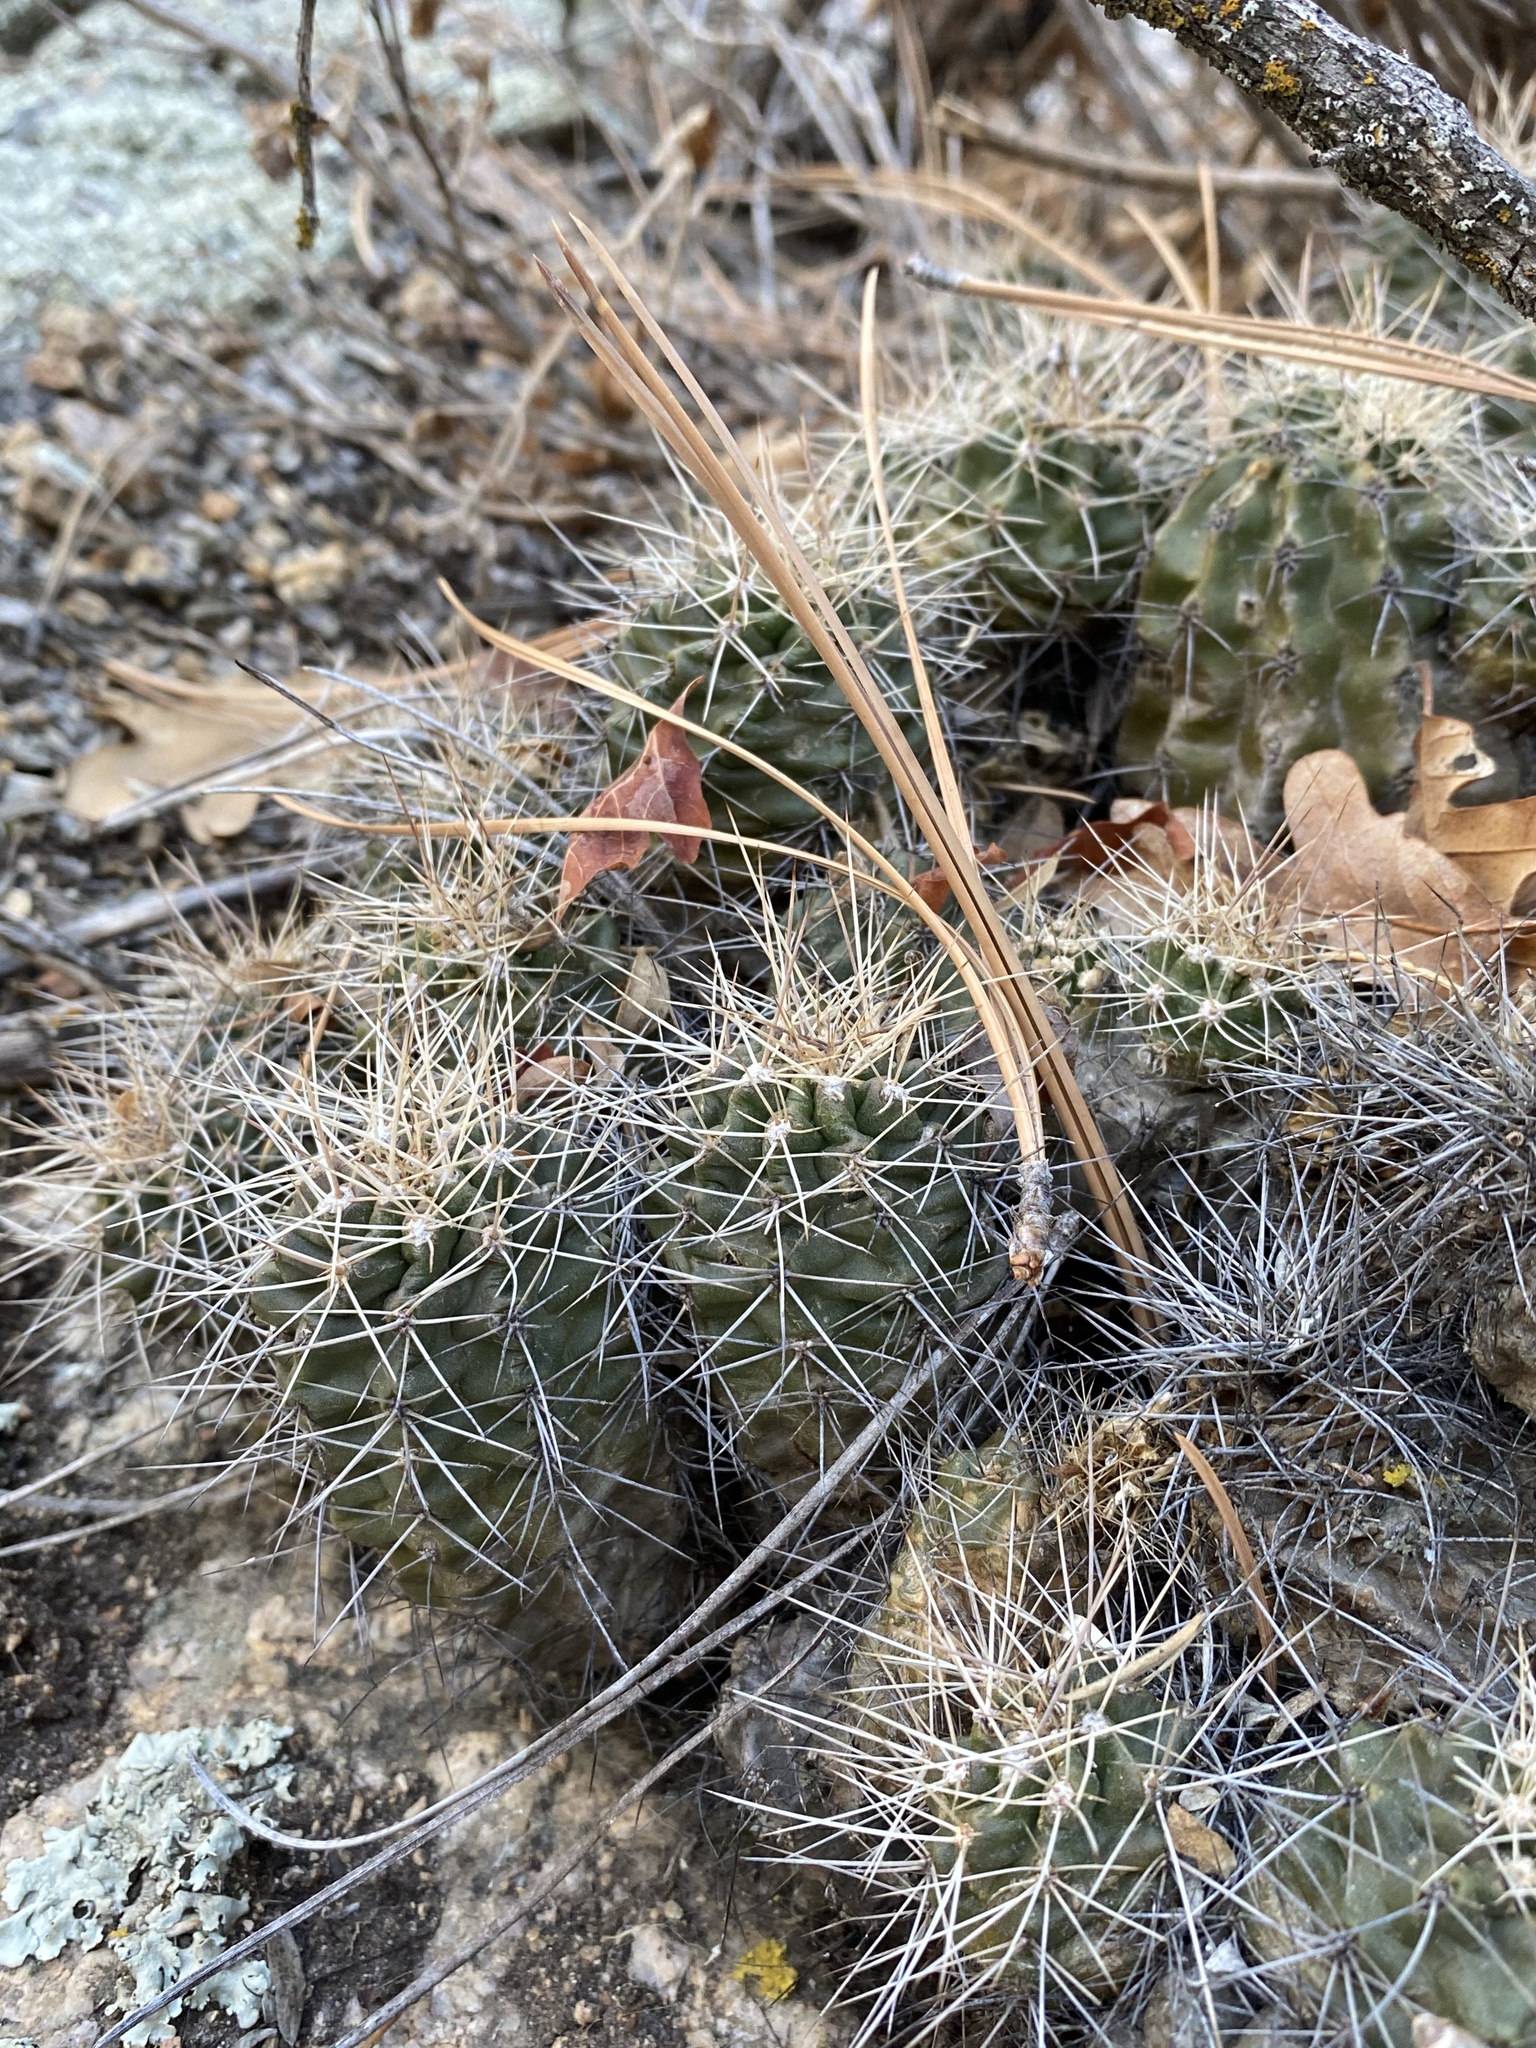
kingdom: Plantae
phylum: Tracheophyta
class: Magnoliopsida
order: Caryophyllales
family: Cactaceae
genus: Echinocereus
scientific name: Echinocereus bakeri
